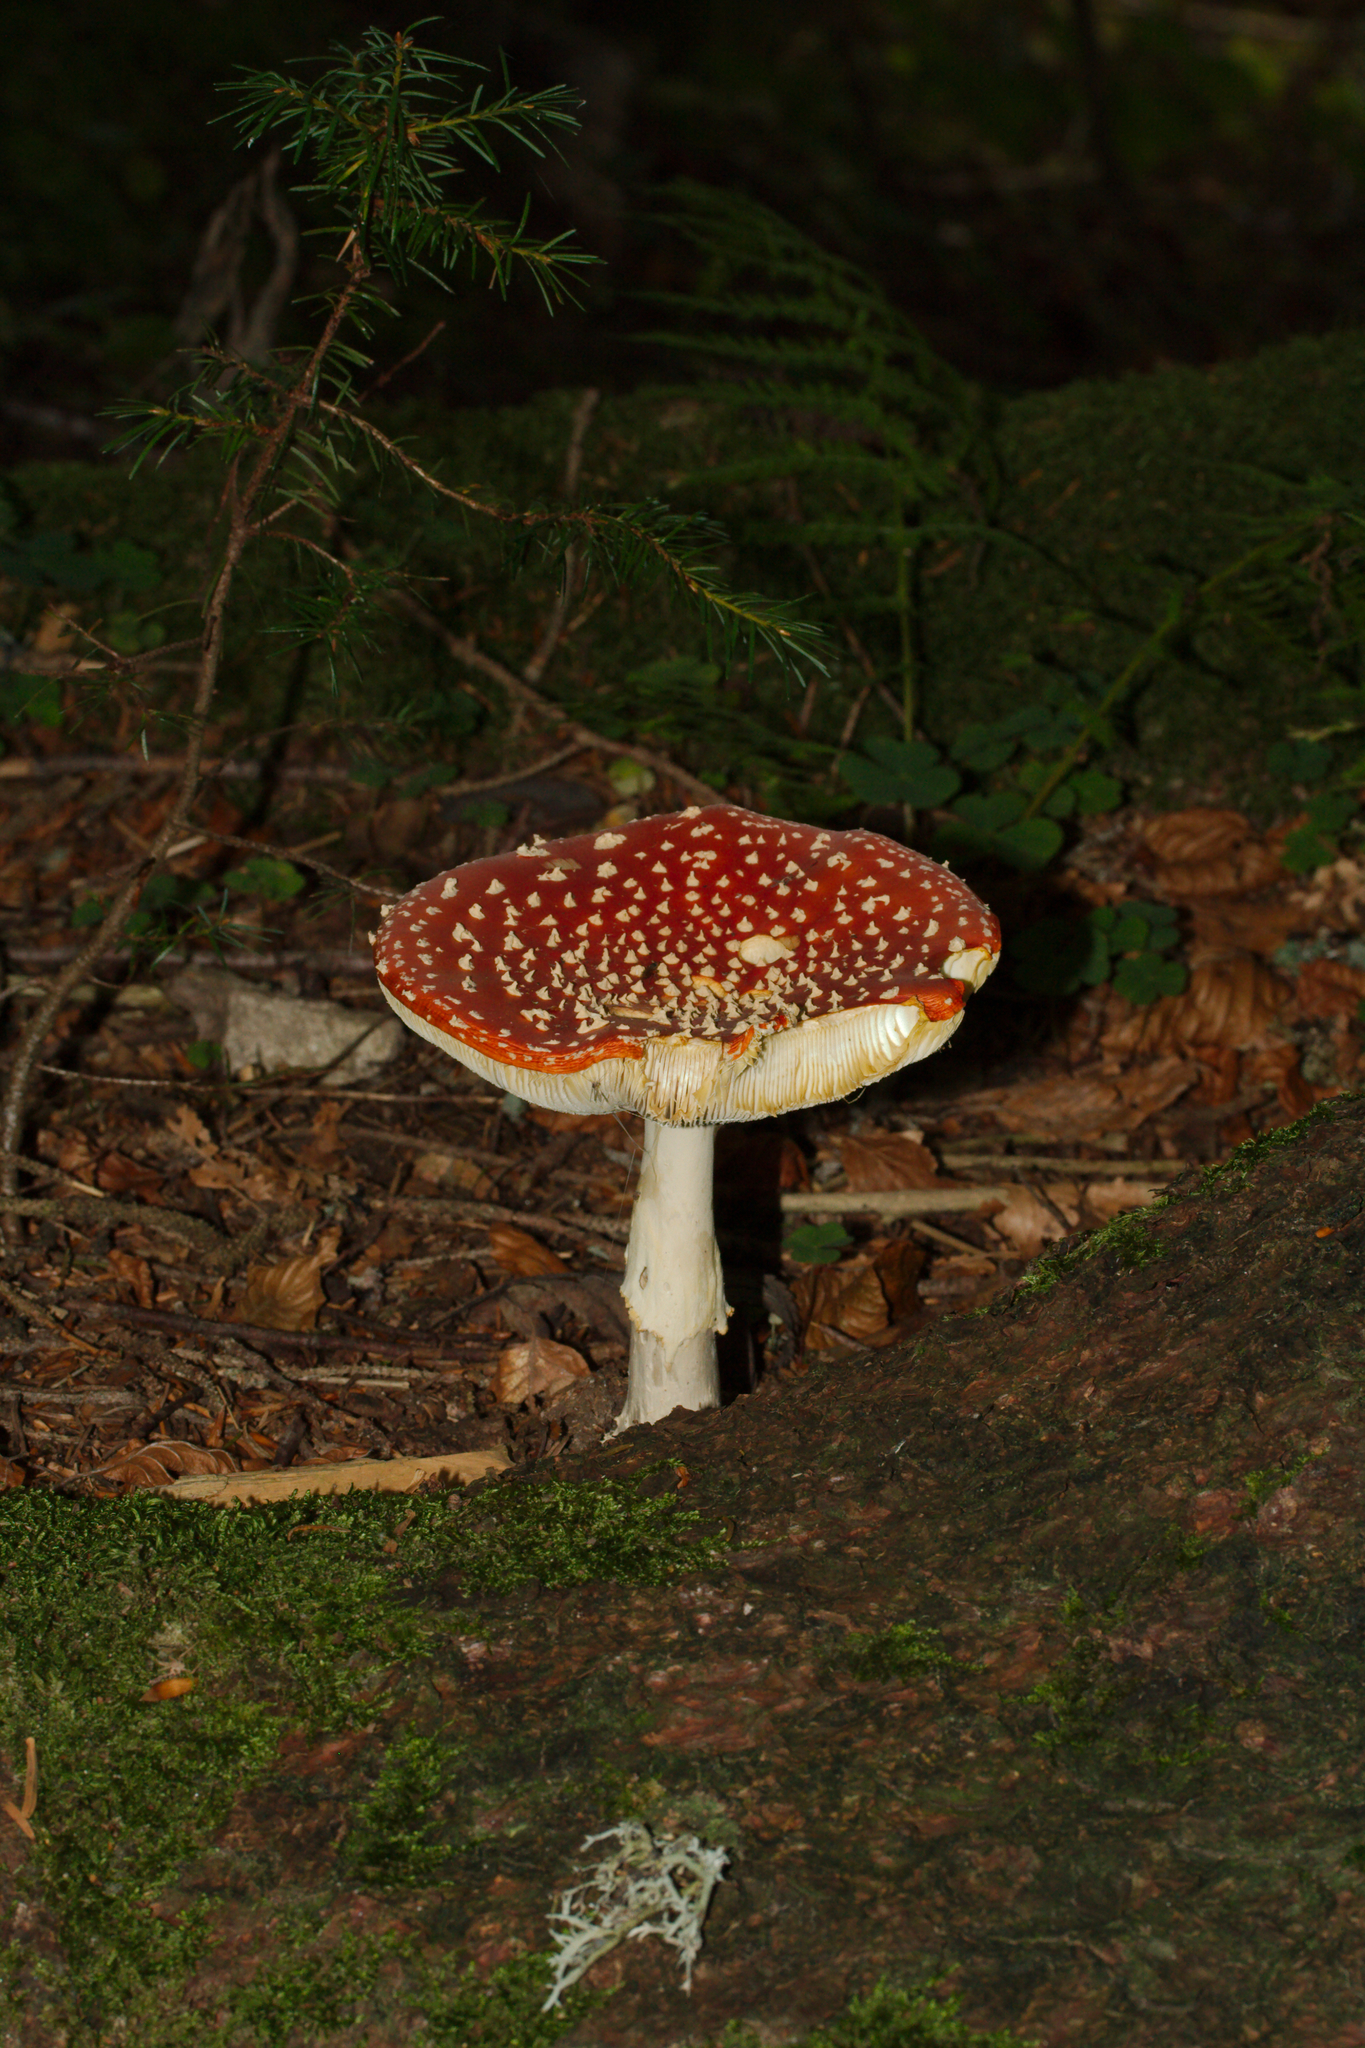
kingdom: Fungi
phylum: Basidiomycota
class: Agaricomycetes
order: Agaricales
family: Amanitaceae
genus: Amanita
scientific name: Amanita muscaria
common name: Fly agaric
